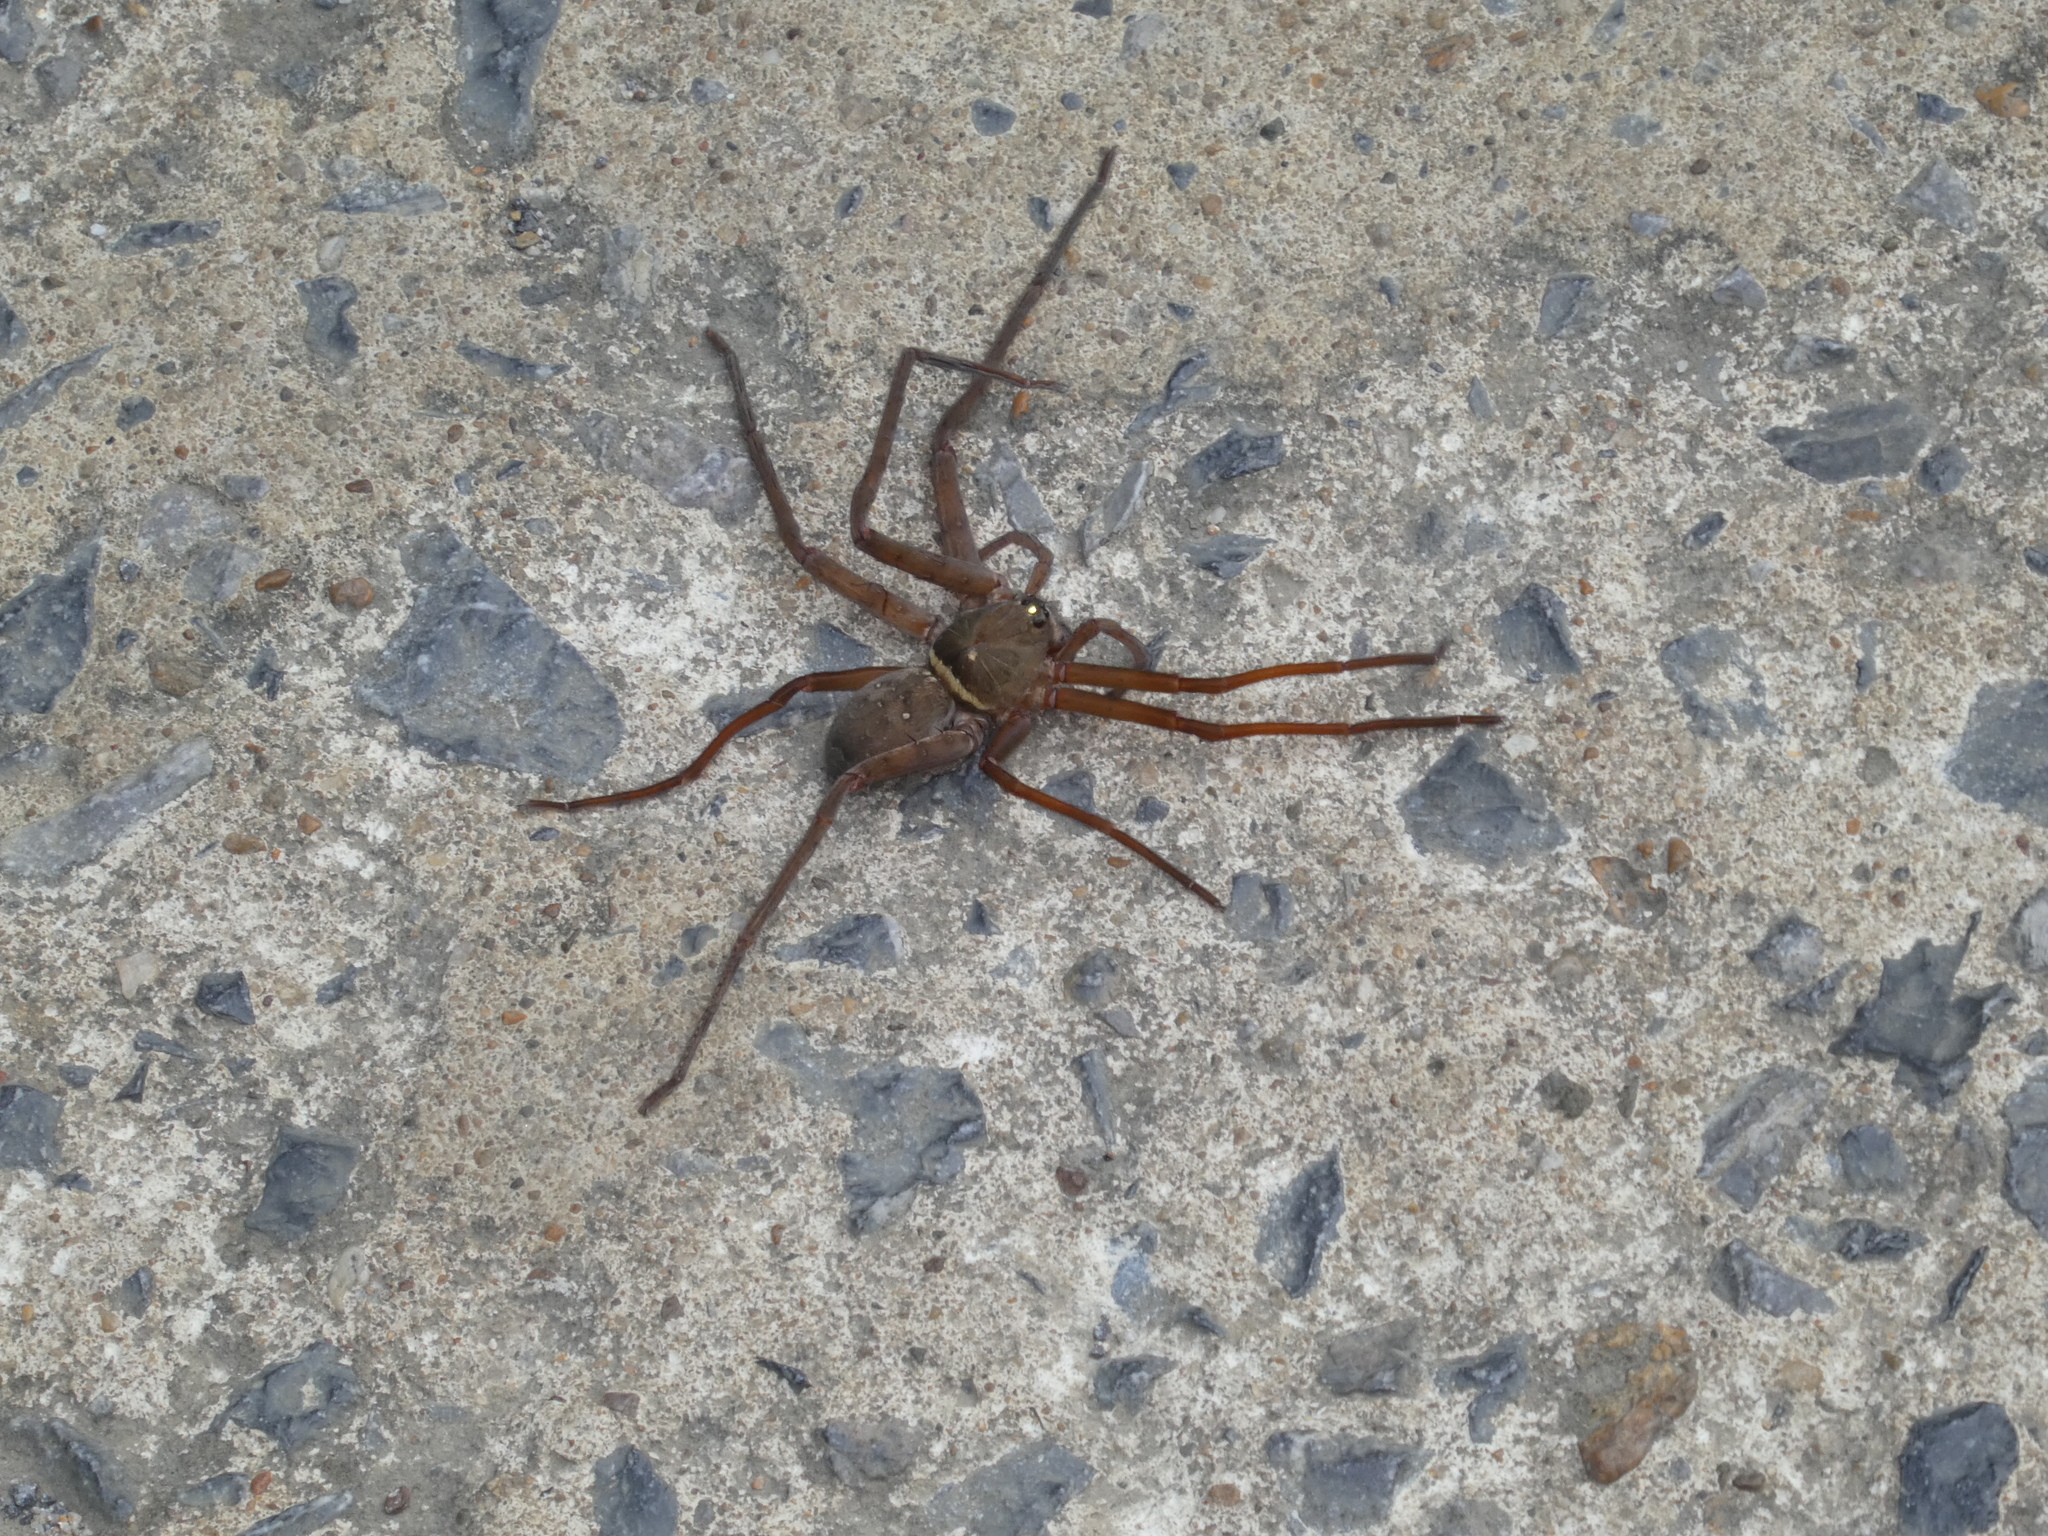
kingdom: Animalia
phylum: Arthropoda
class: Arachnida
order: Araneae
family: Sparassidae
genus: Heteropoda
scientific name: Heteropoda venatoria
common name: Huntsman spider
